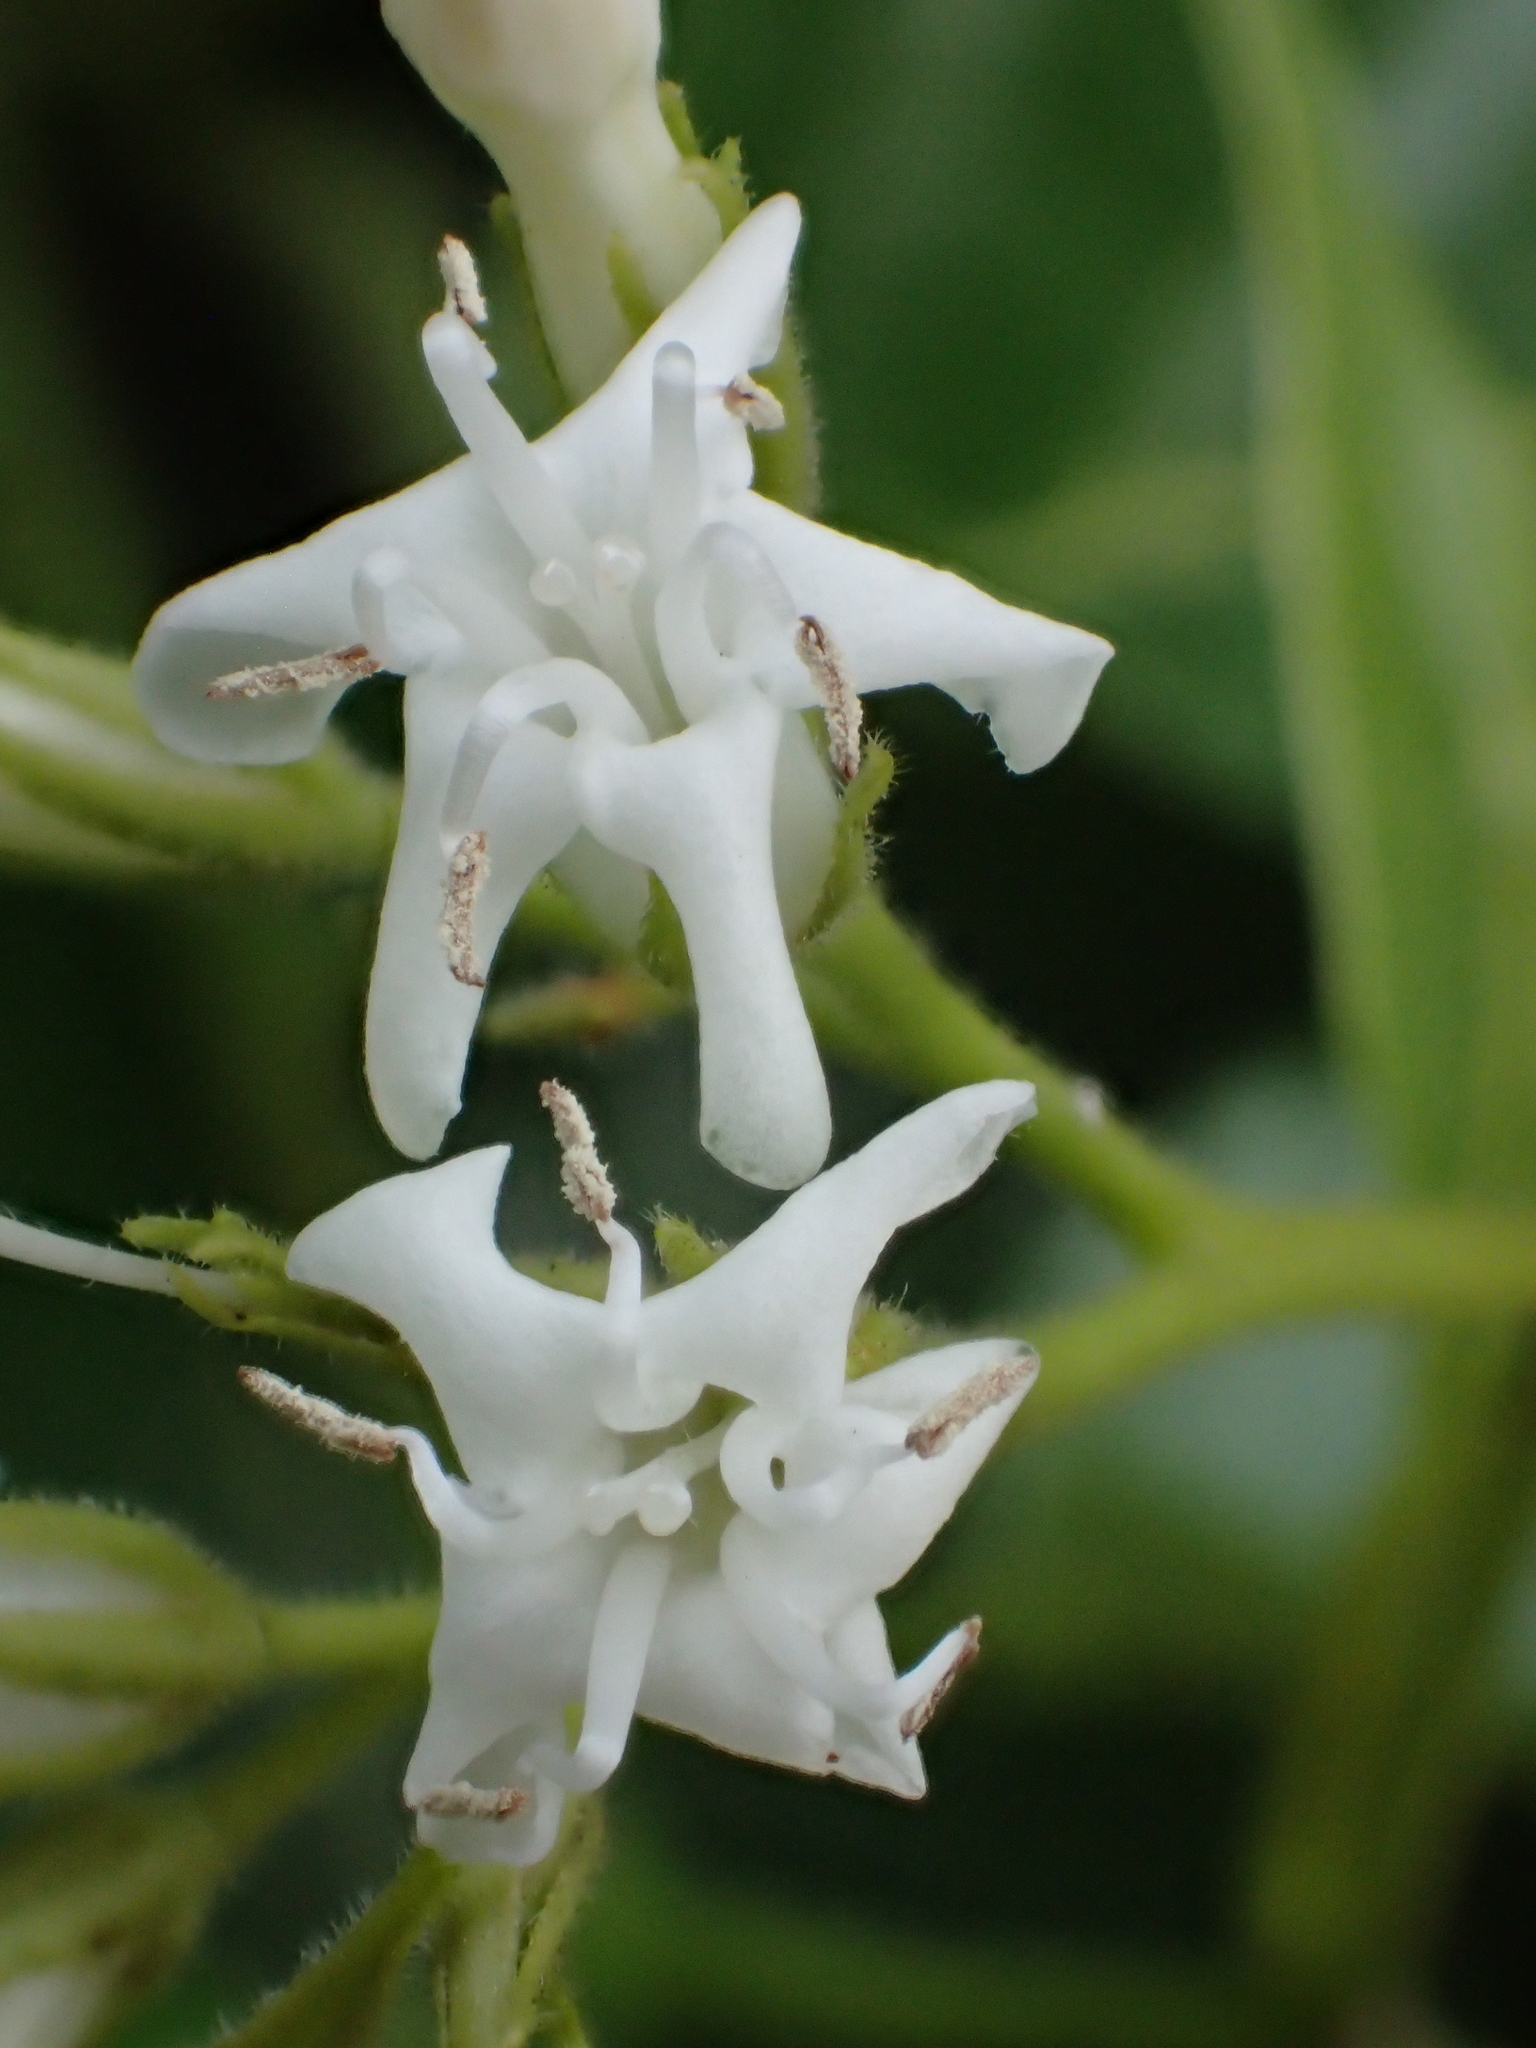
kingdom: Plantae
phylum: Tracheophyta
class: Magnoliopsida
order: Boraginales
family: Ehretiaceae
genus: Ehretia
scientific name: Ehretia resinosa
